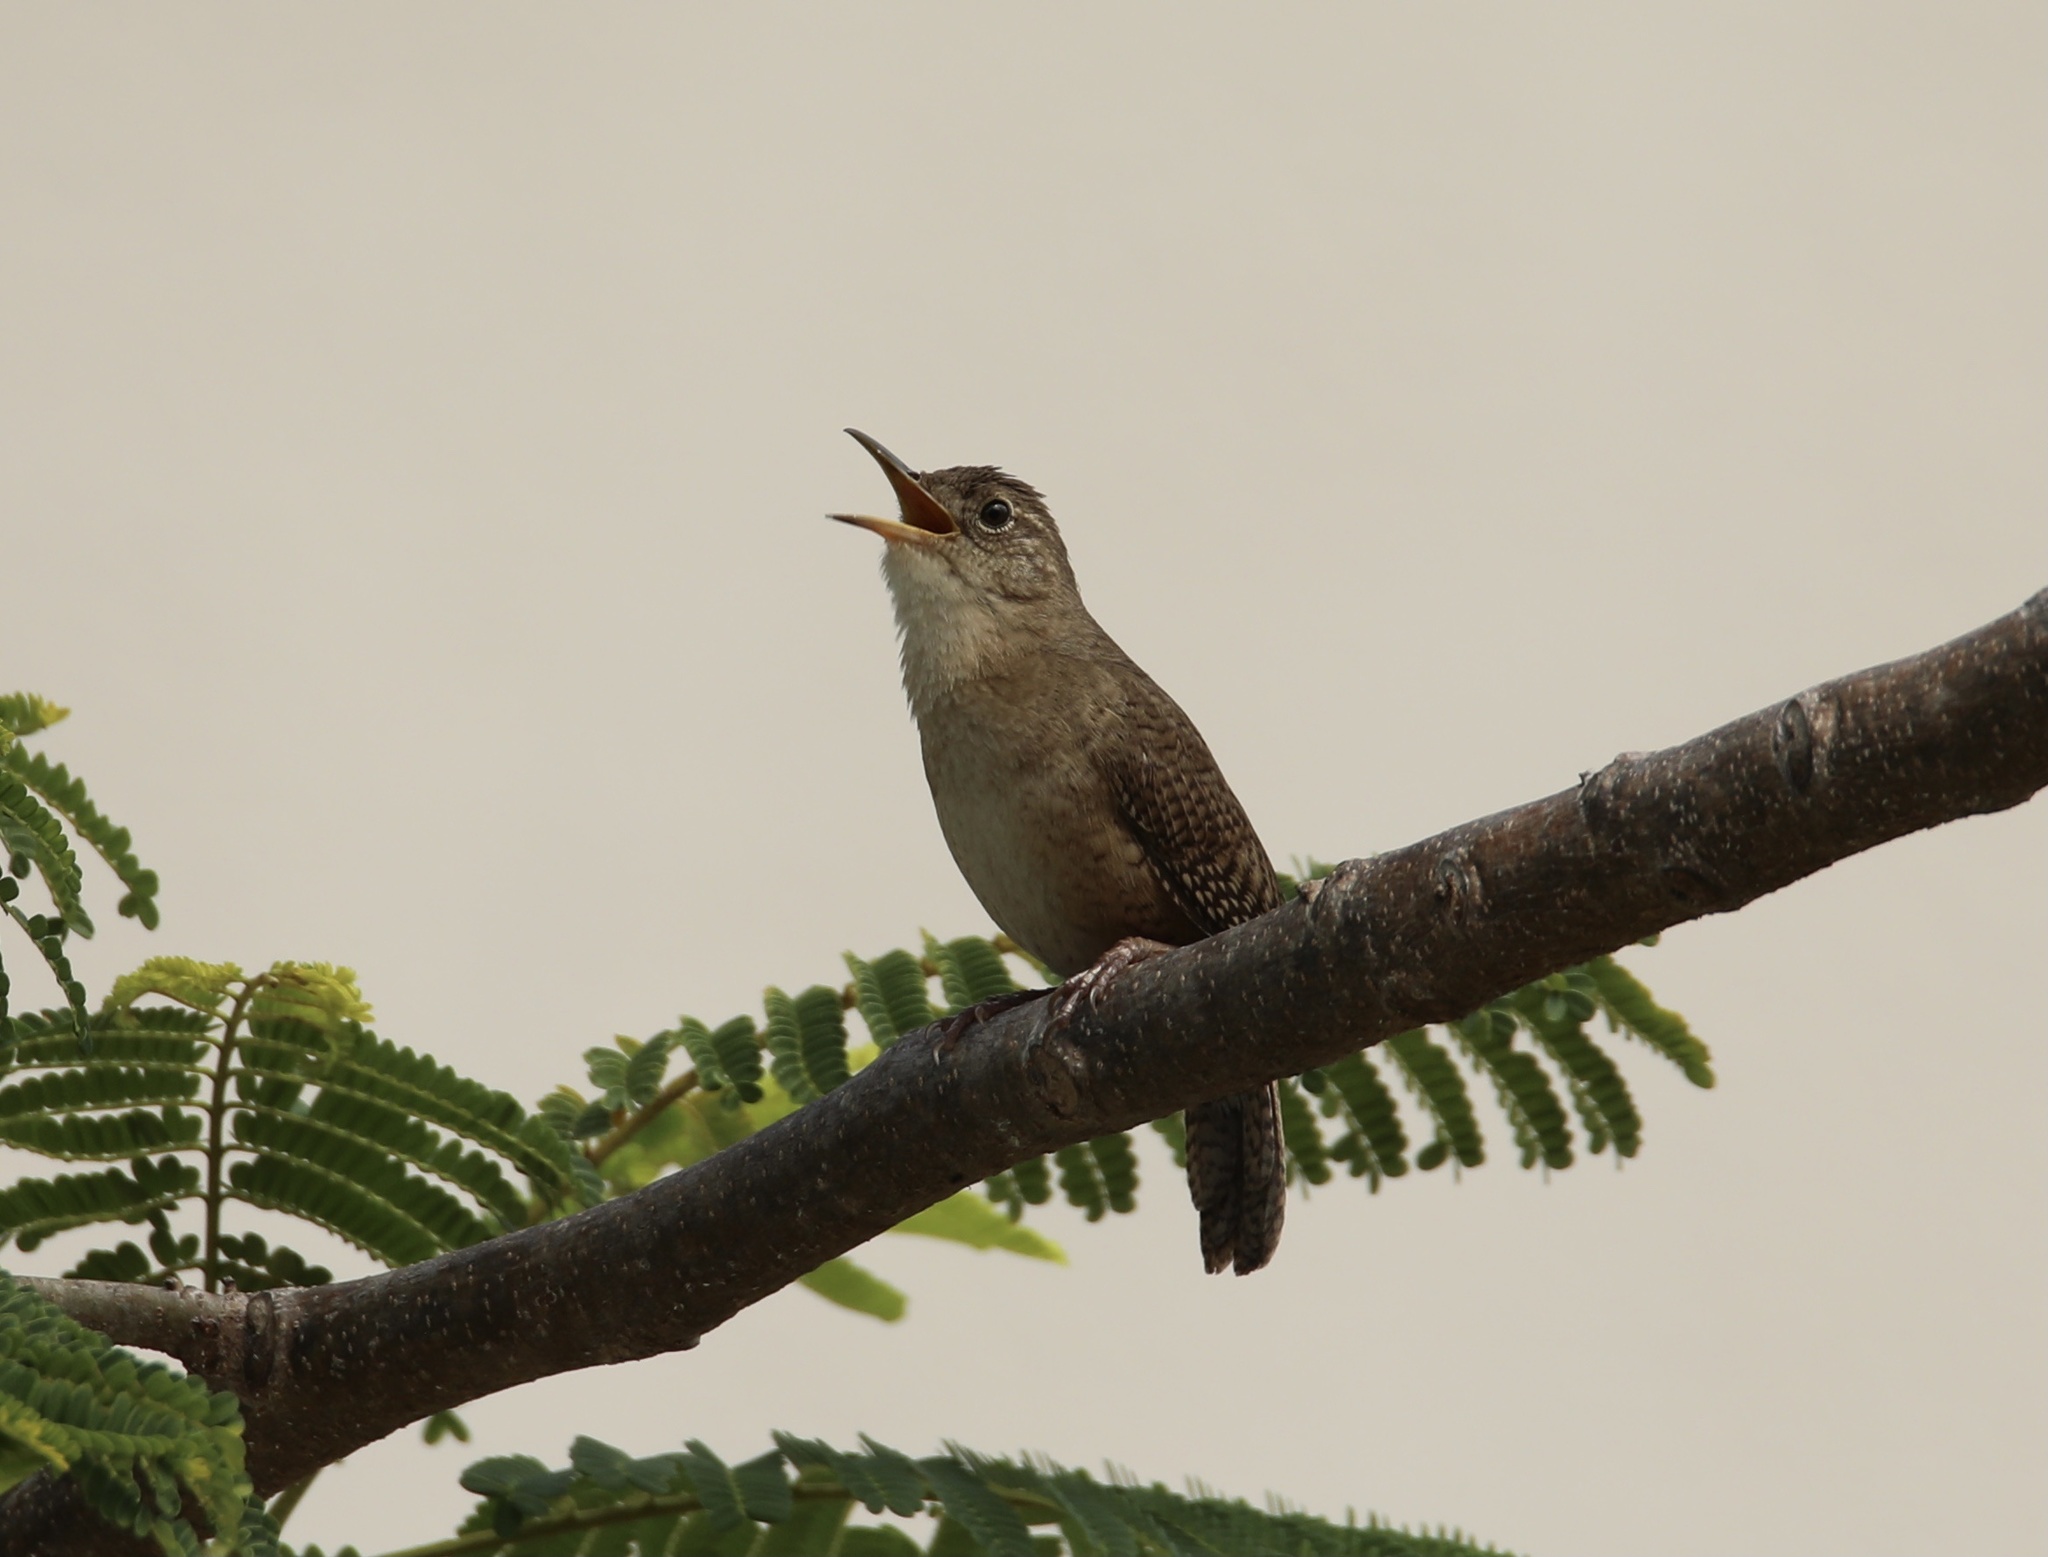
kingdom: Animalia
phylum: Chordata
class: Aves
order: Passeriformes
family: Troglodytidae
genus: Troglodytes
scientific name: Troglodytes aedon
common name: House wren
